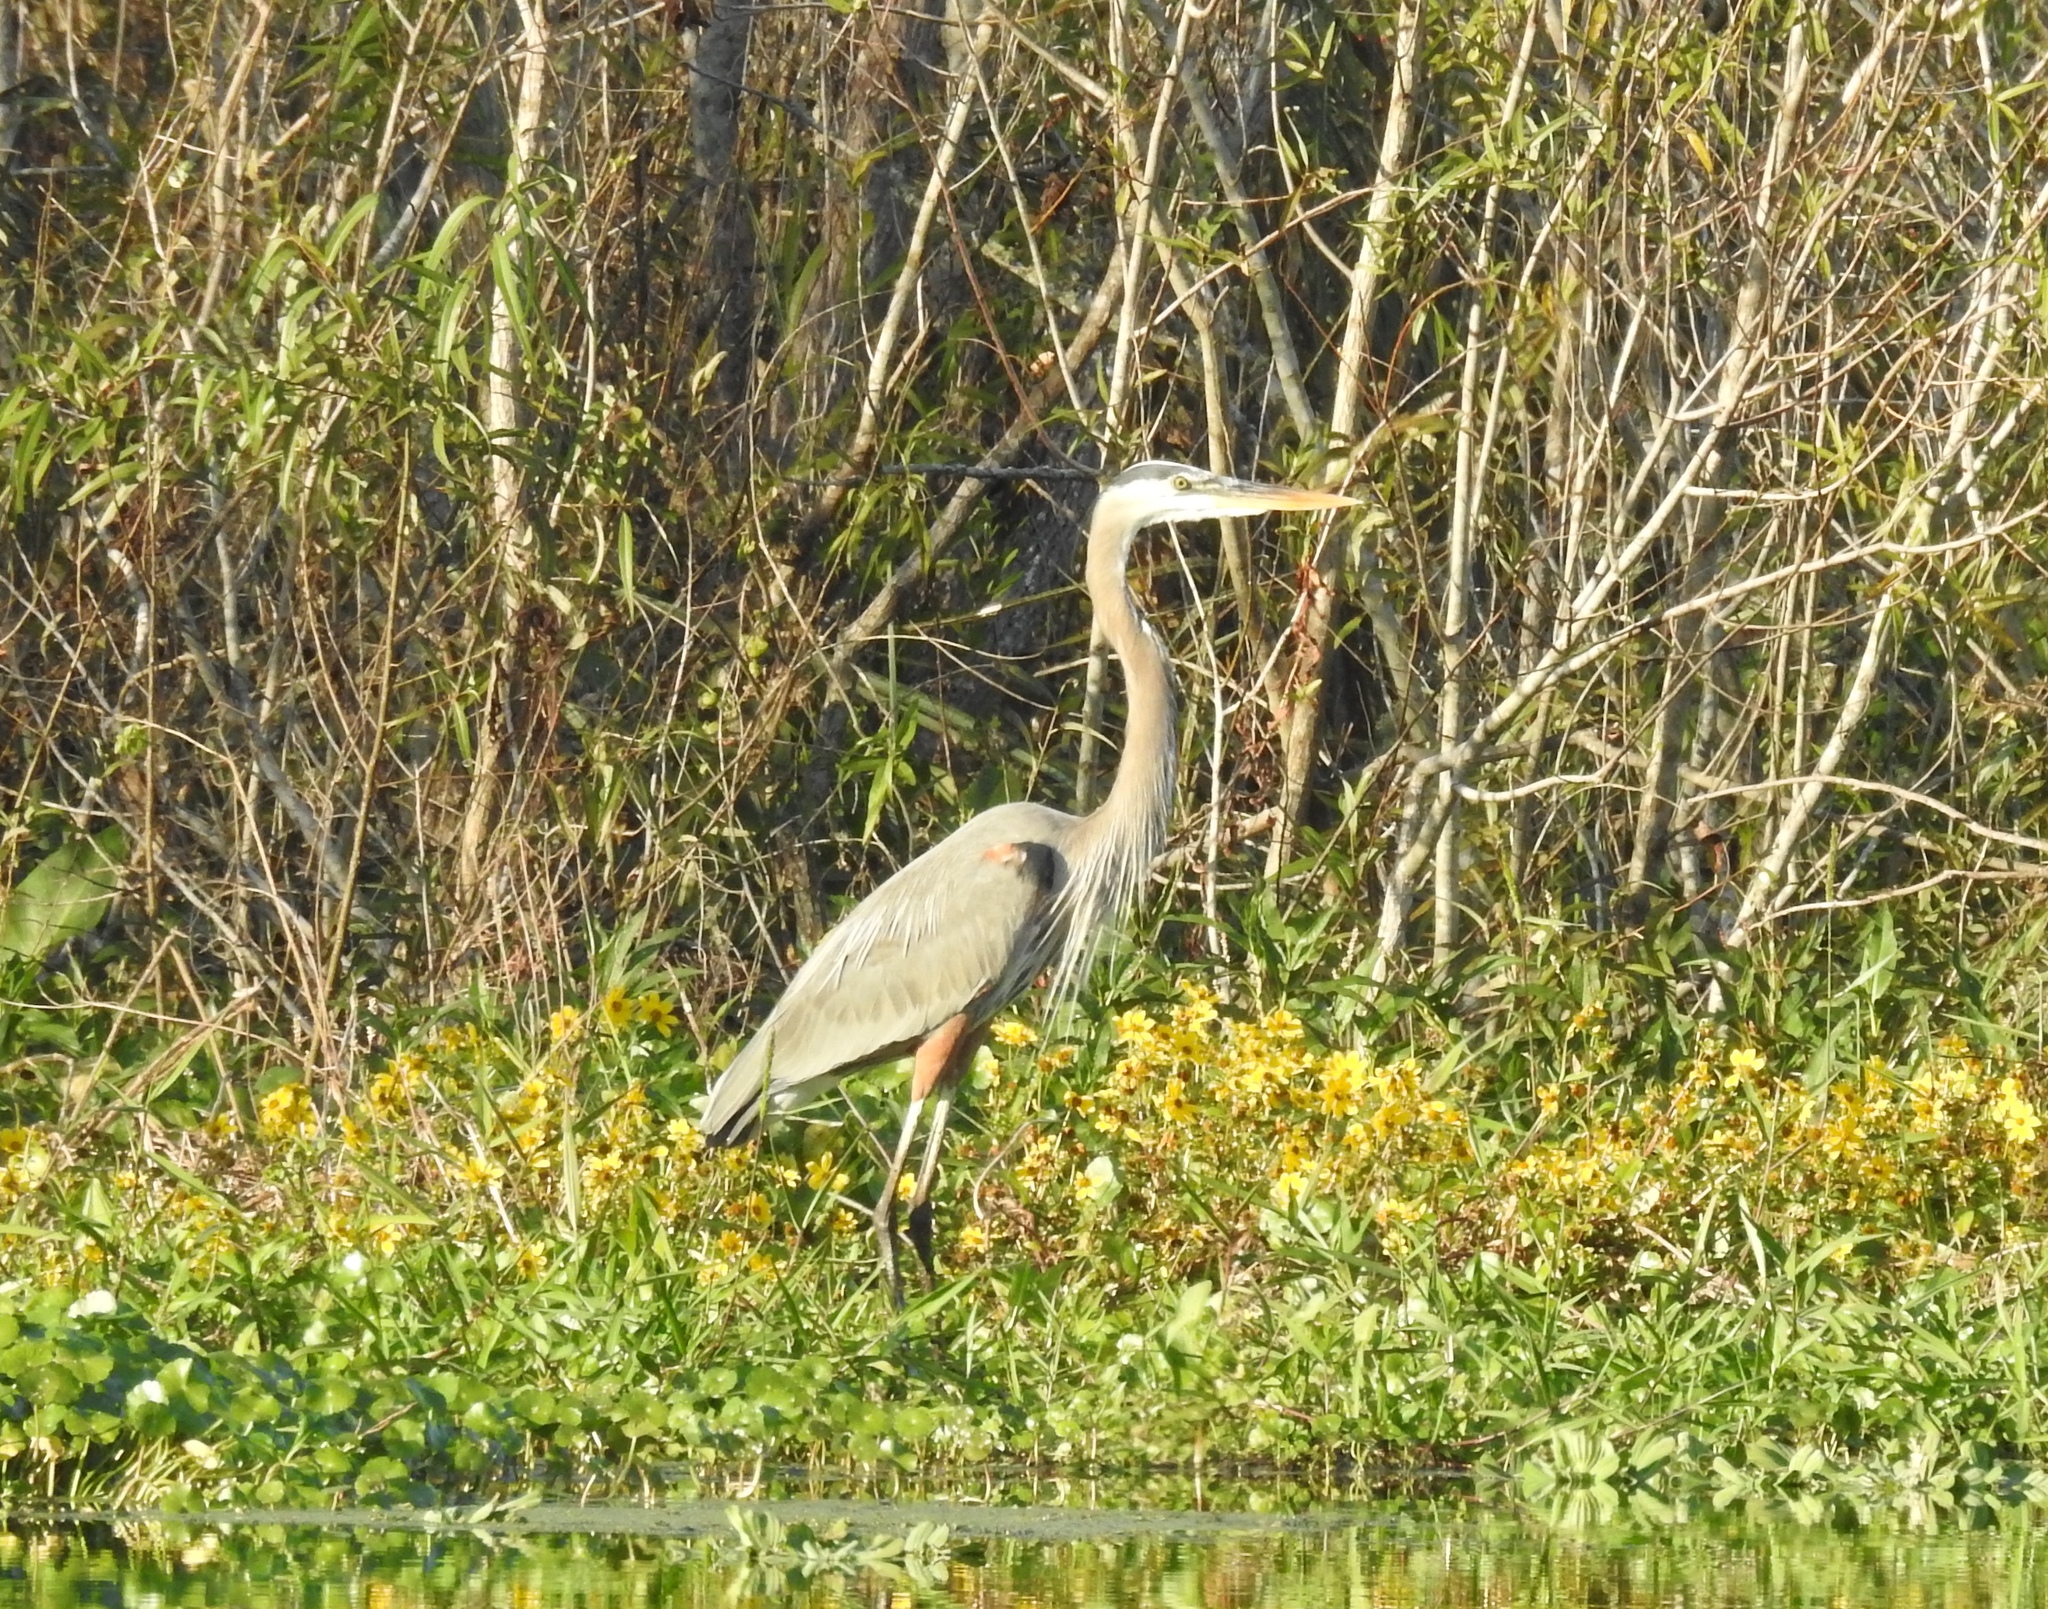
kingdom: Animalia
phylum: Chordata
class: Aves
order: Pelecaniformes
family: Ardeidae
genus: Ardea
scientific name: Ardea herodias
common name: Great blue heron
